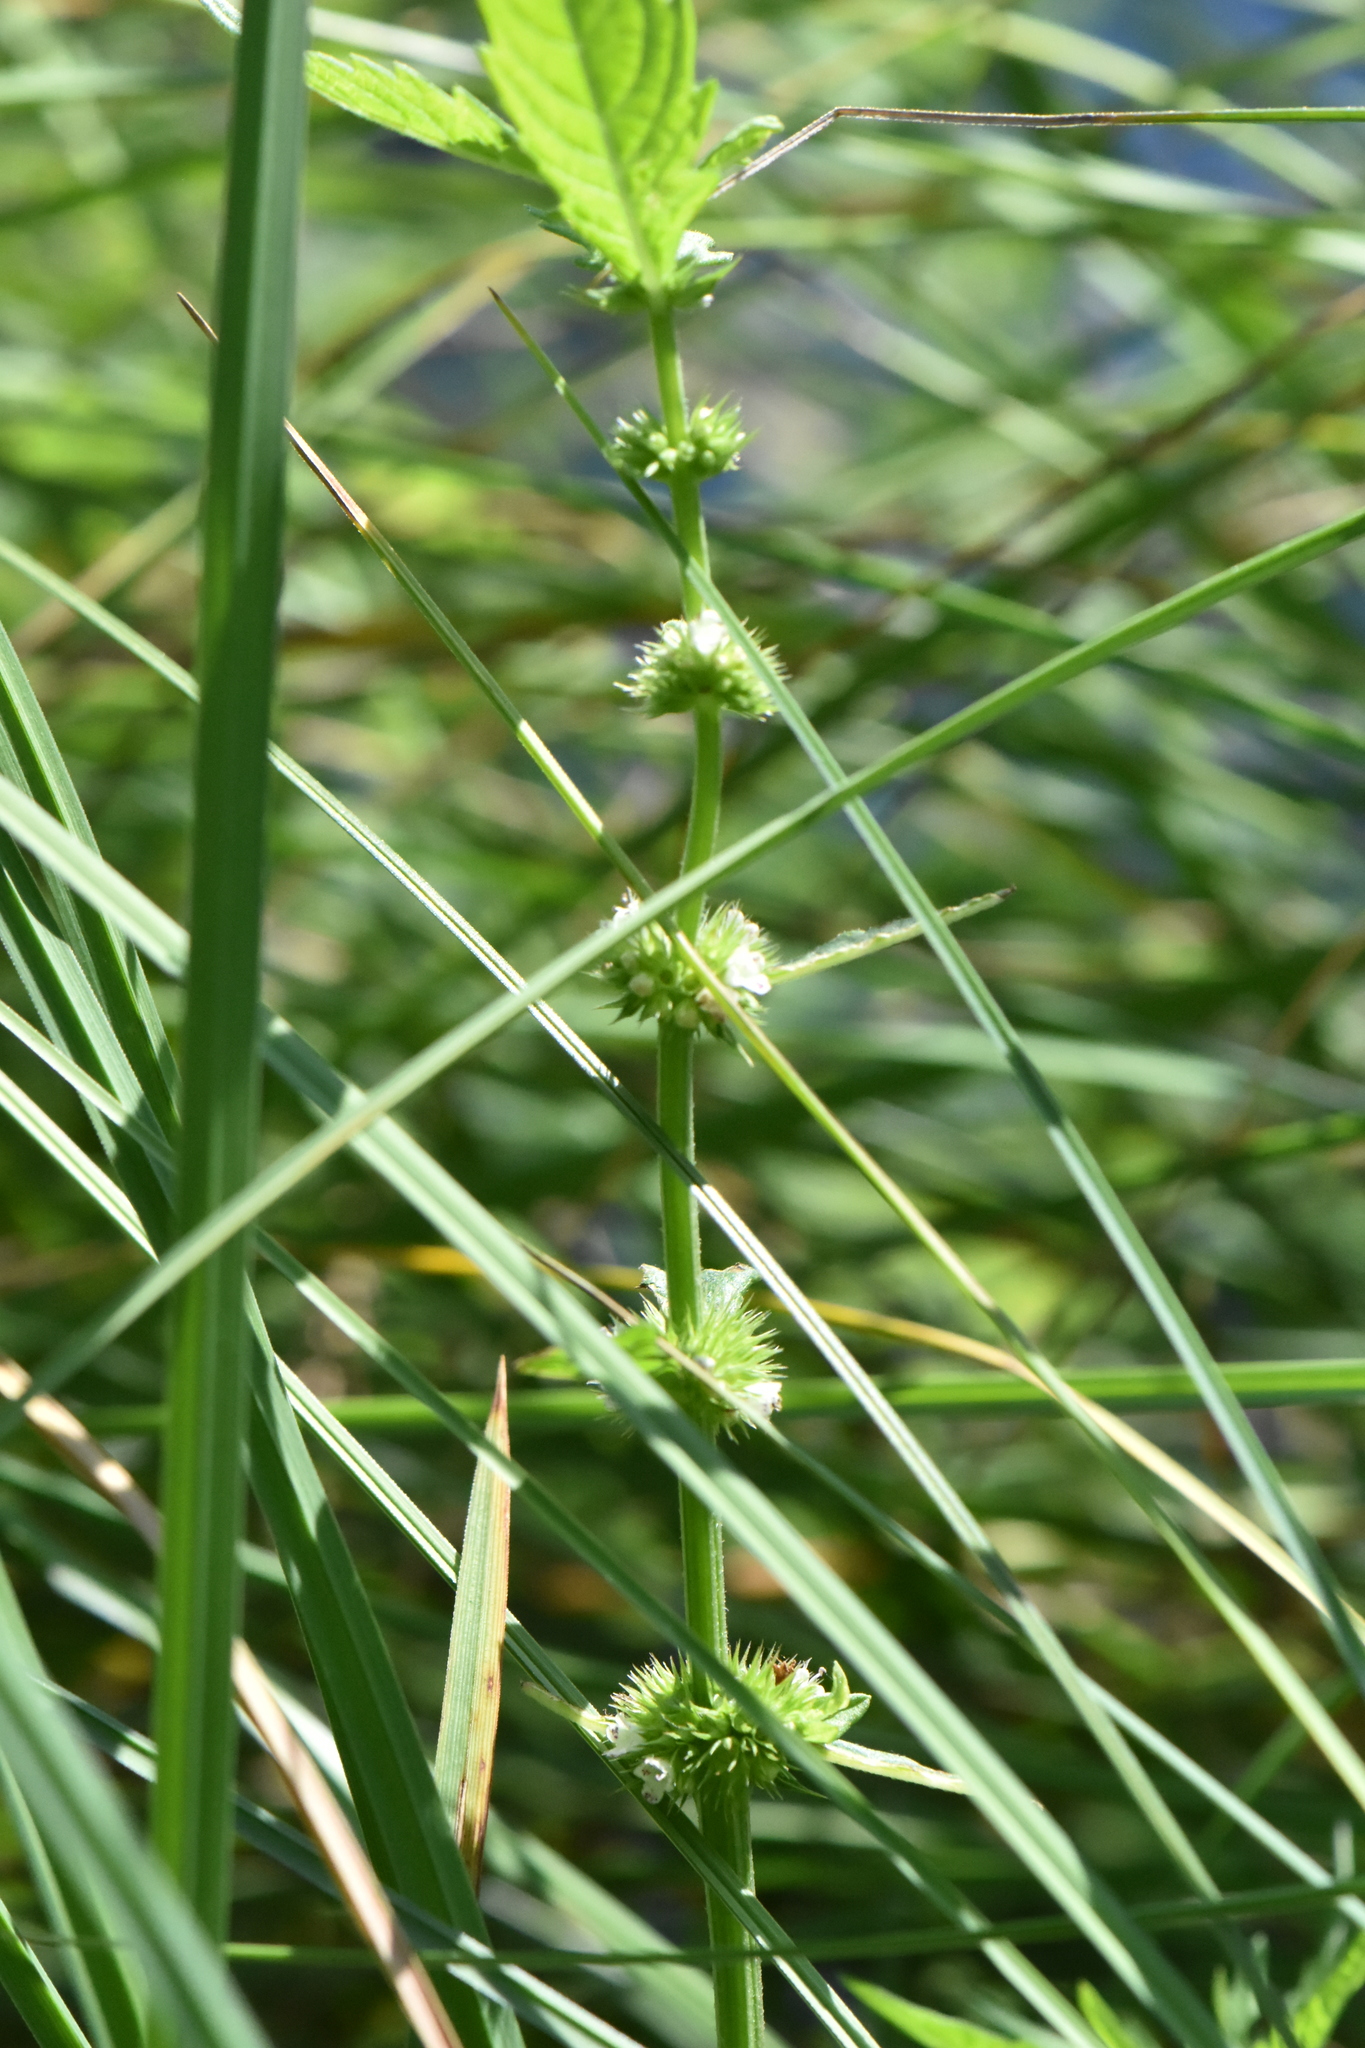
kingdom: Plantae
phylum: Tracheophyta
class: Magnoliopsida
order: Lamiales
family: Lamiaceae
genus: Lycopus
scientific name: Lycopus europaeus
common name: European bugleweed
